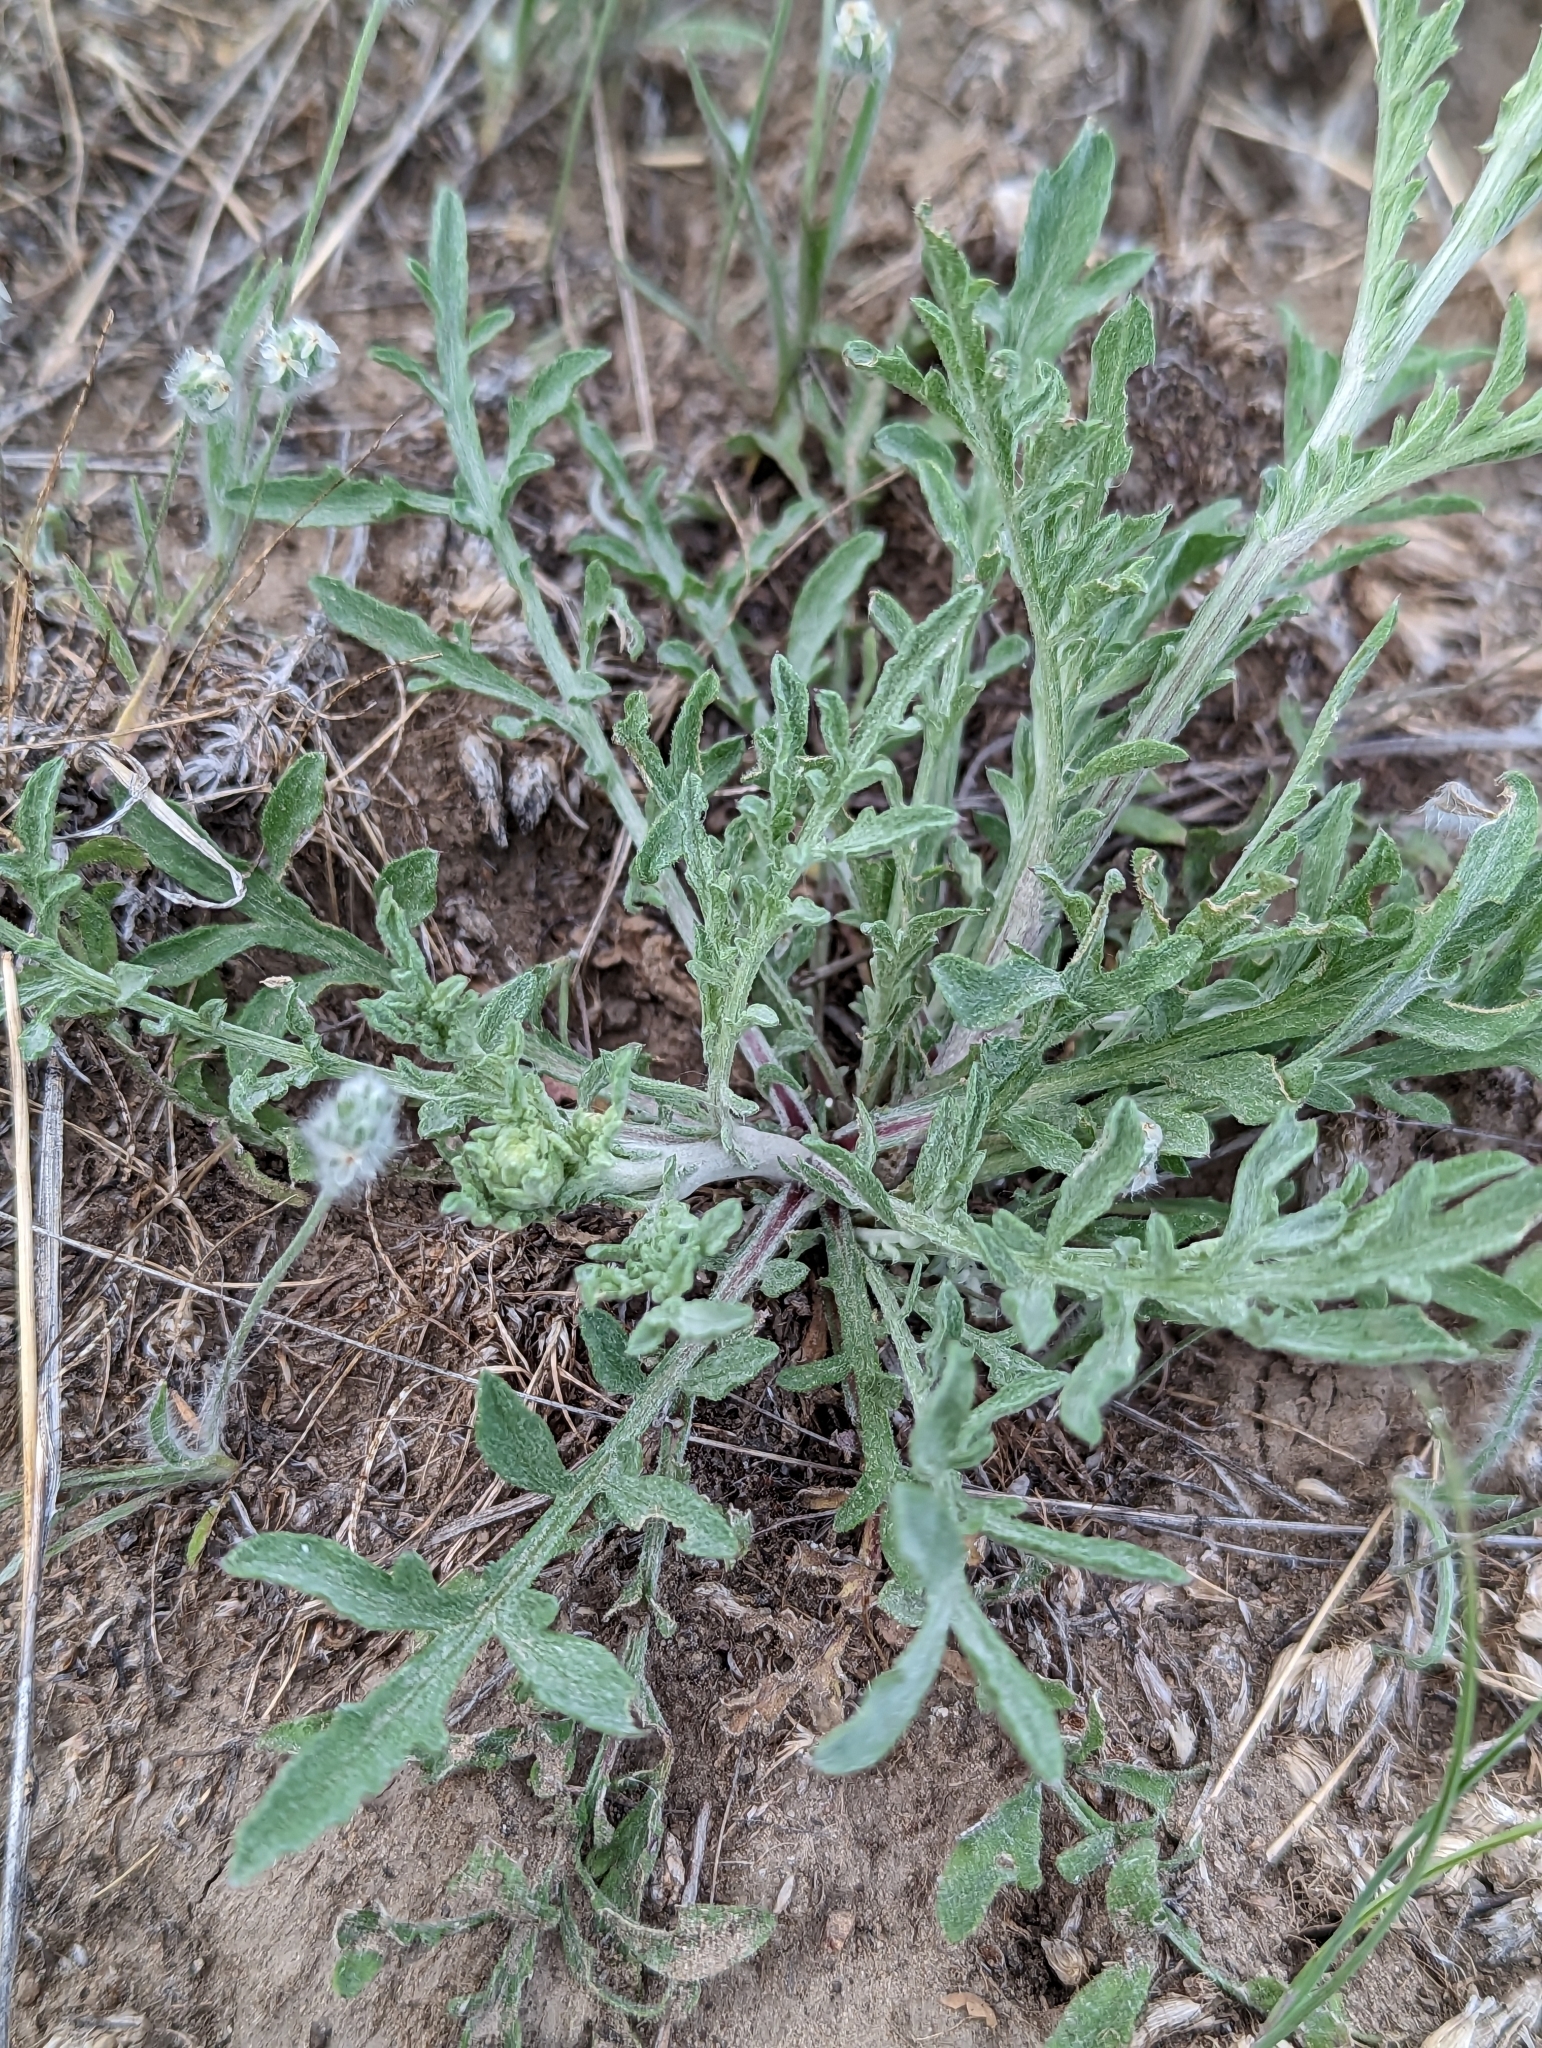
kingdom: Plantae
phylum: Tracheophyta
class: Magnoliopsida
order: Asterales
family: Asteraceae
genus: Centaurea
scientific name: Centaurea diffusa
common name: Diffuse knapweed
